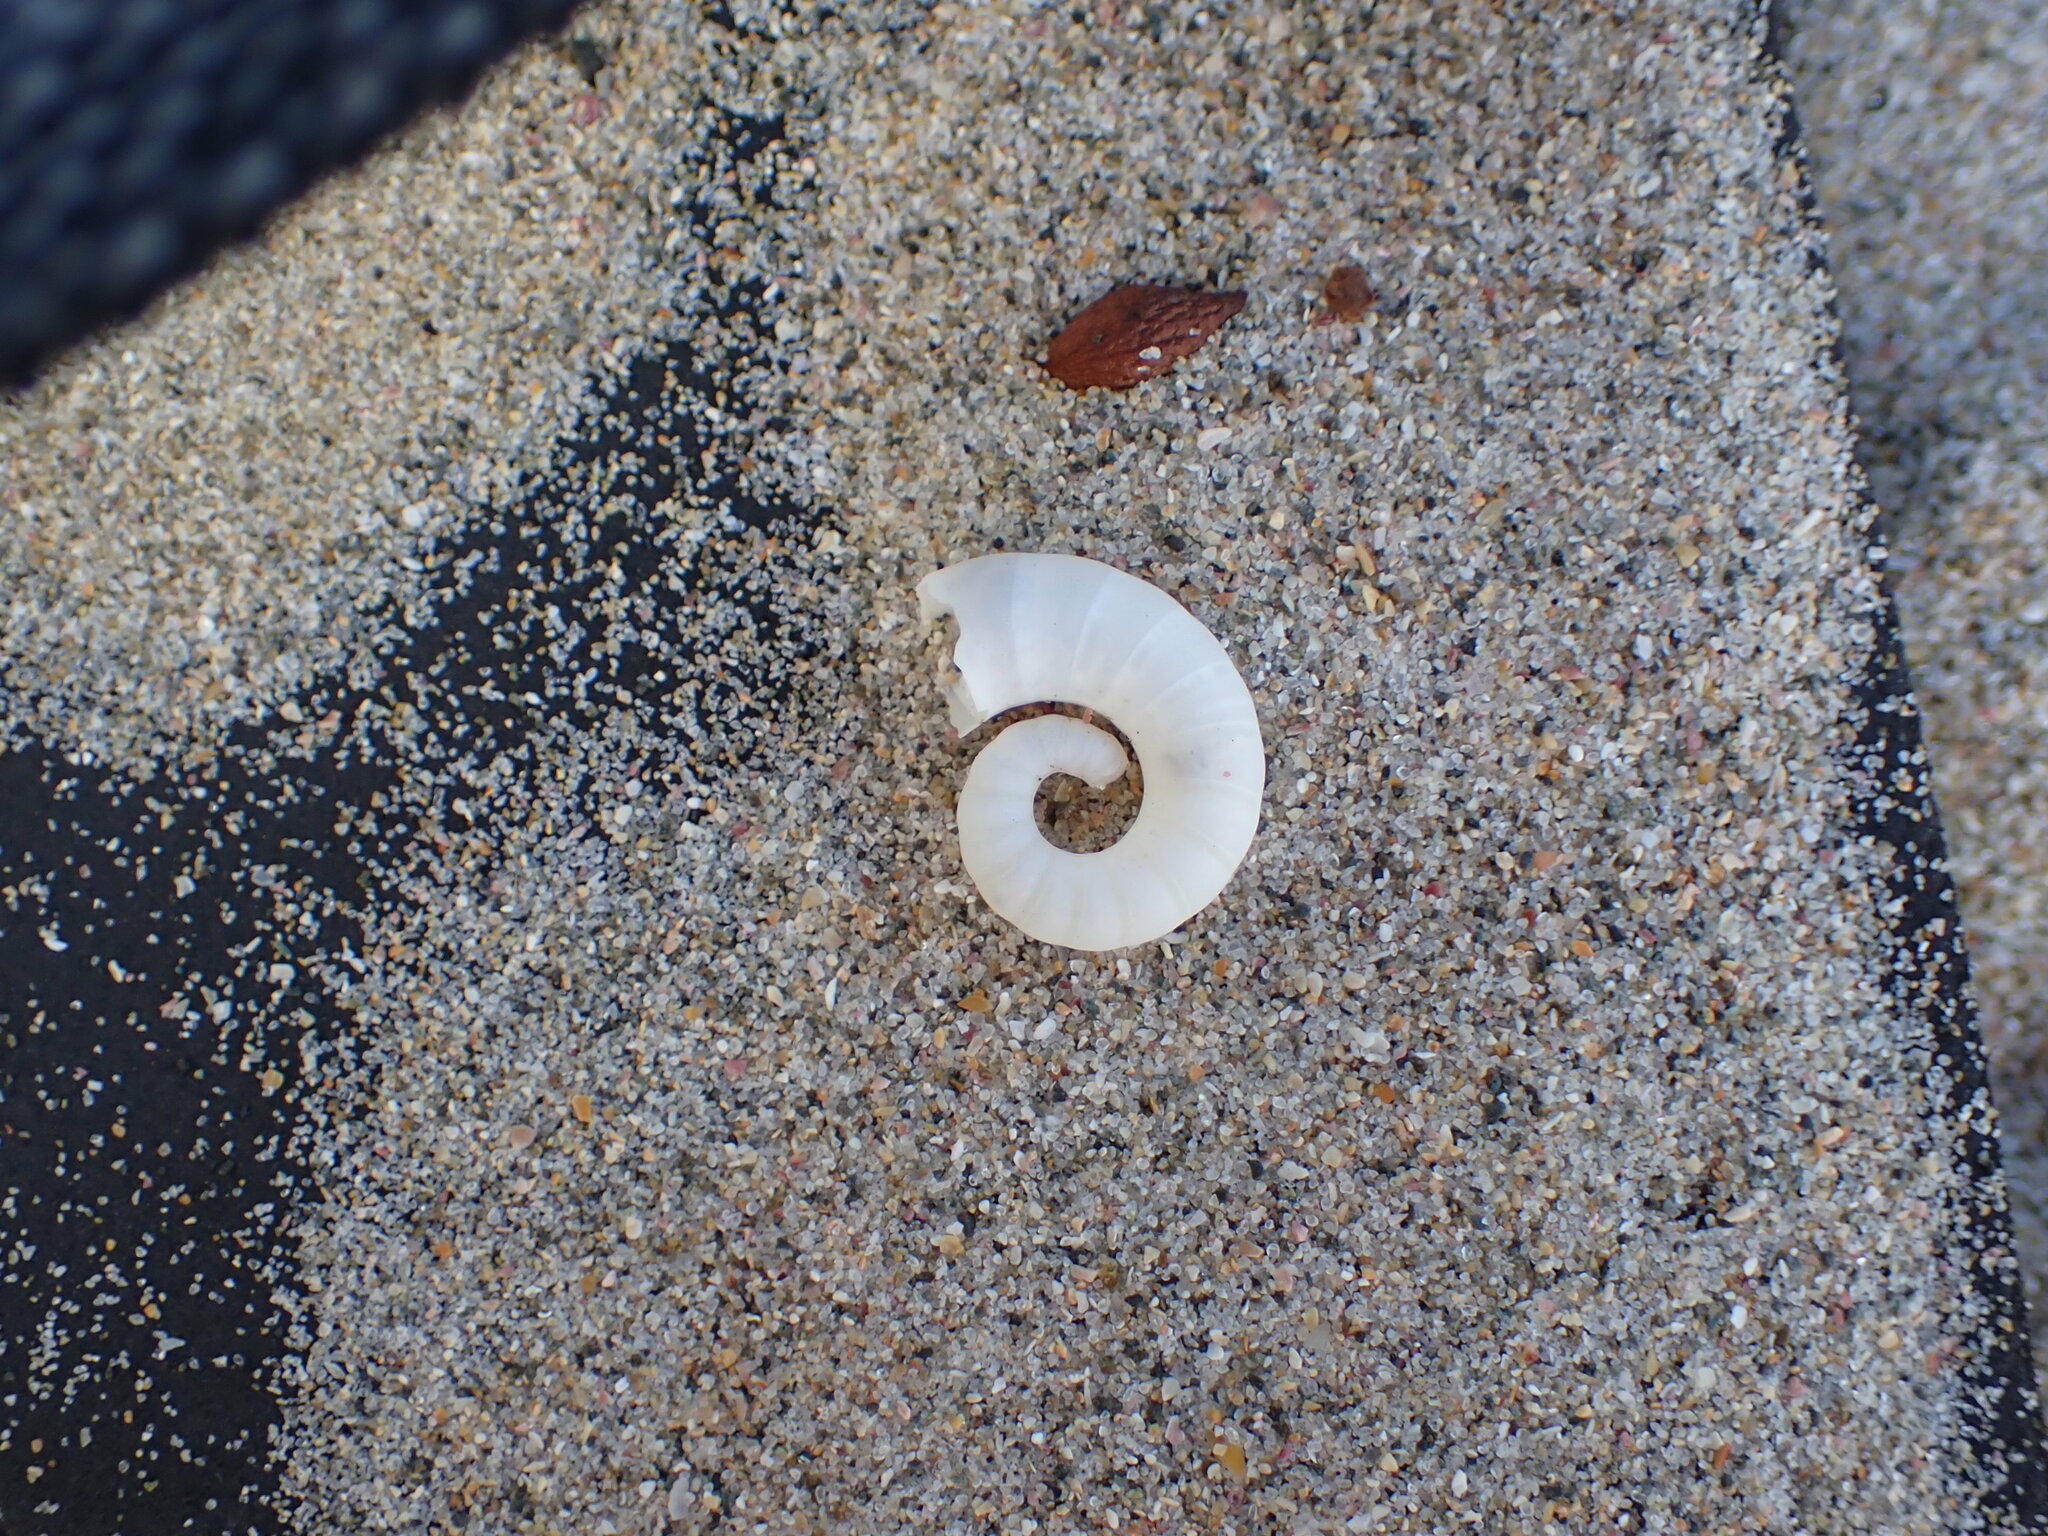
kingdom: Animalia
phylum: Mollusca
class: Cephalopoda
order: Spirulida
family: Spirulidae
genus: Spirula
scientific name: Spirula spirula
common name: Ram's horn squid
